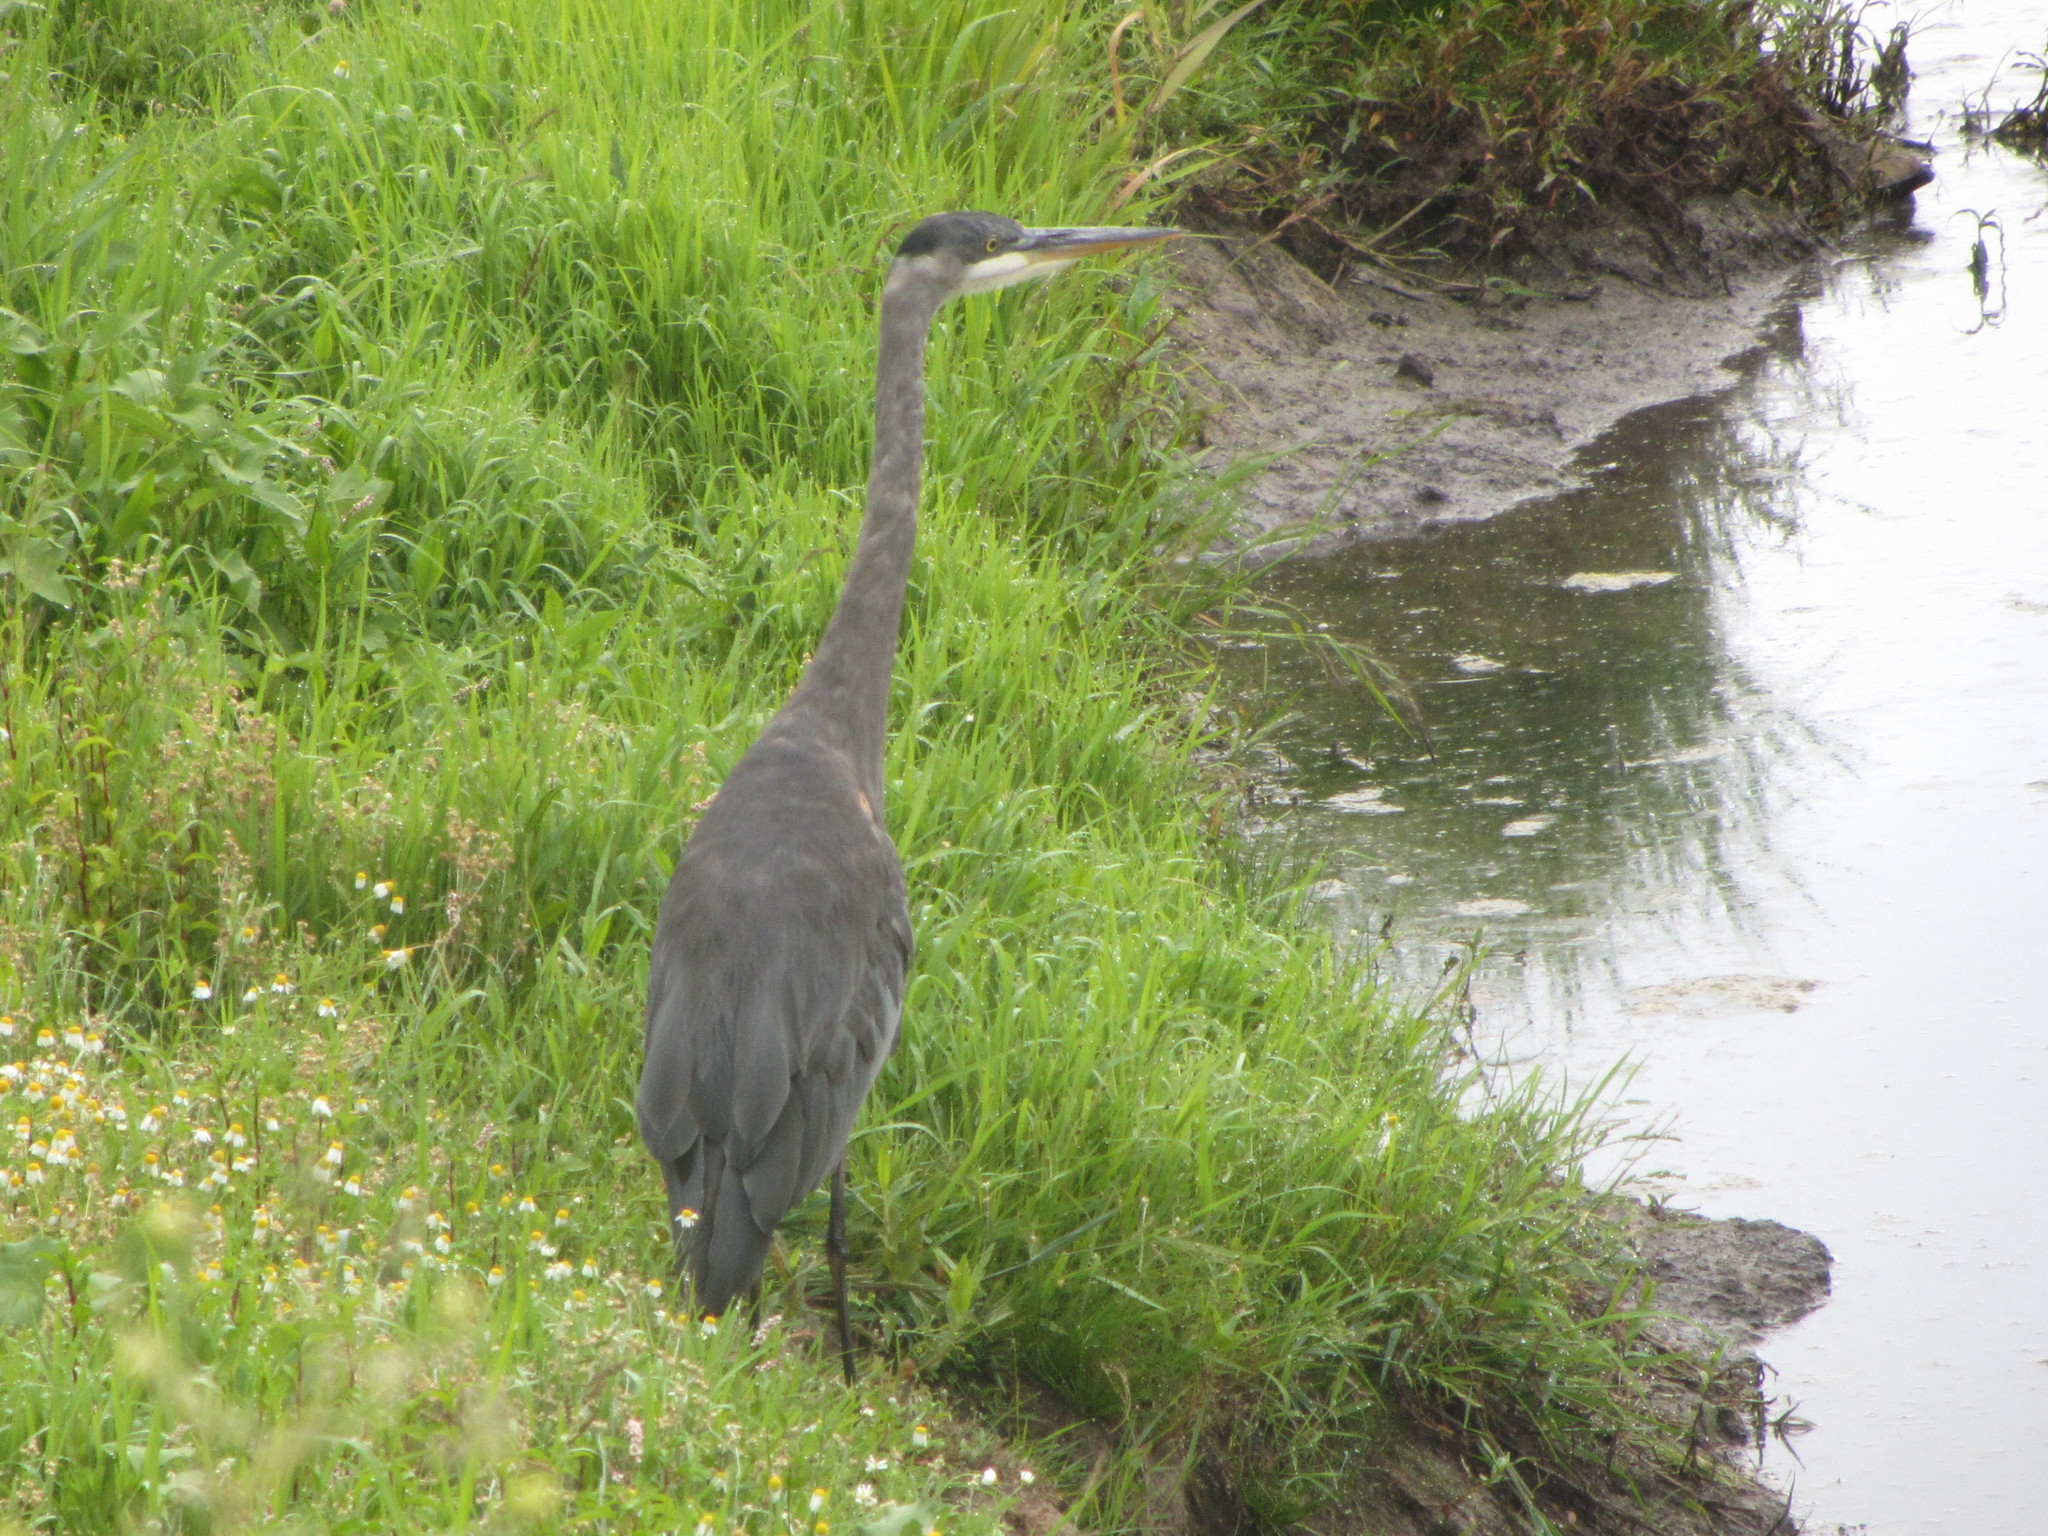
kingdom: Animalia
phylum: Chordata
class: Aves
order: Pelecaniformes
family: Ardeidae
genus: Ardea
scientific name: Ardea herodias
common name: Great blue heron
